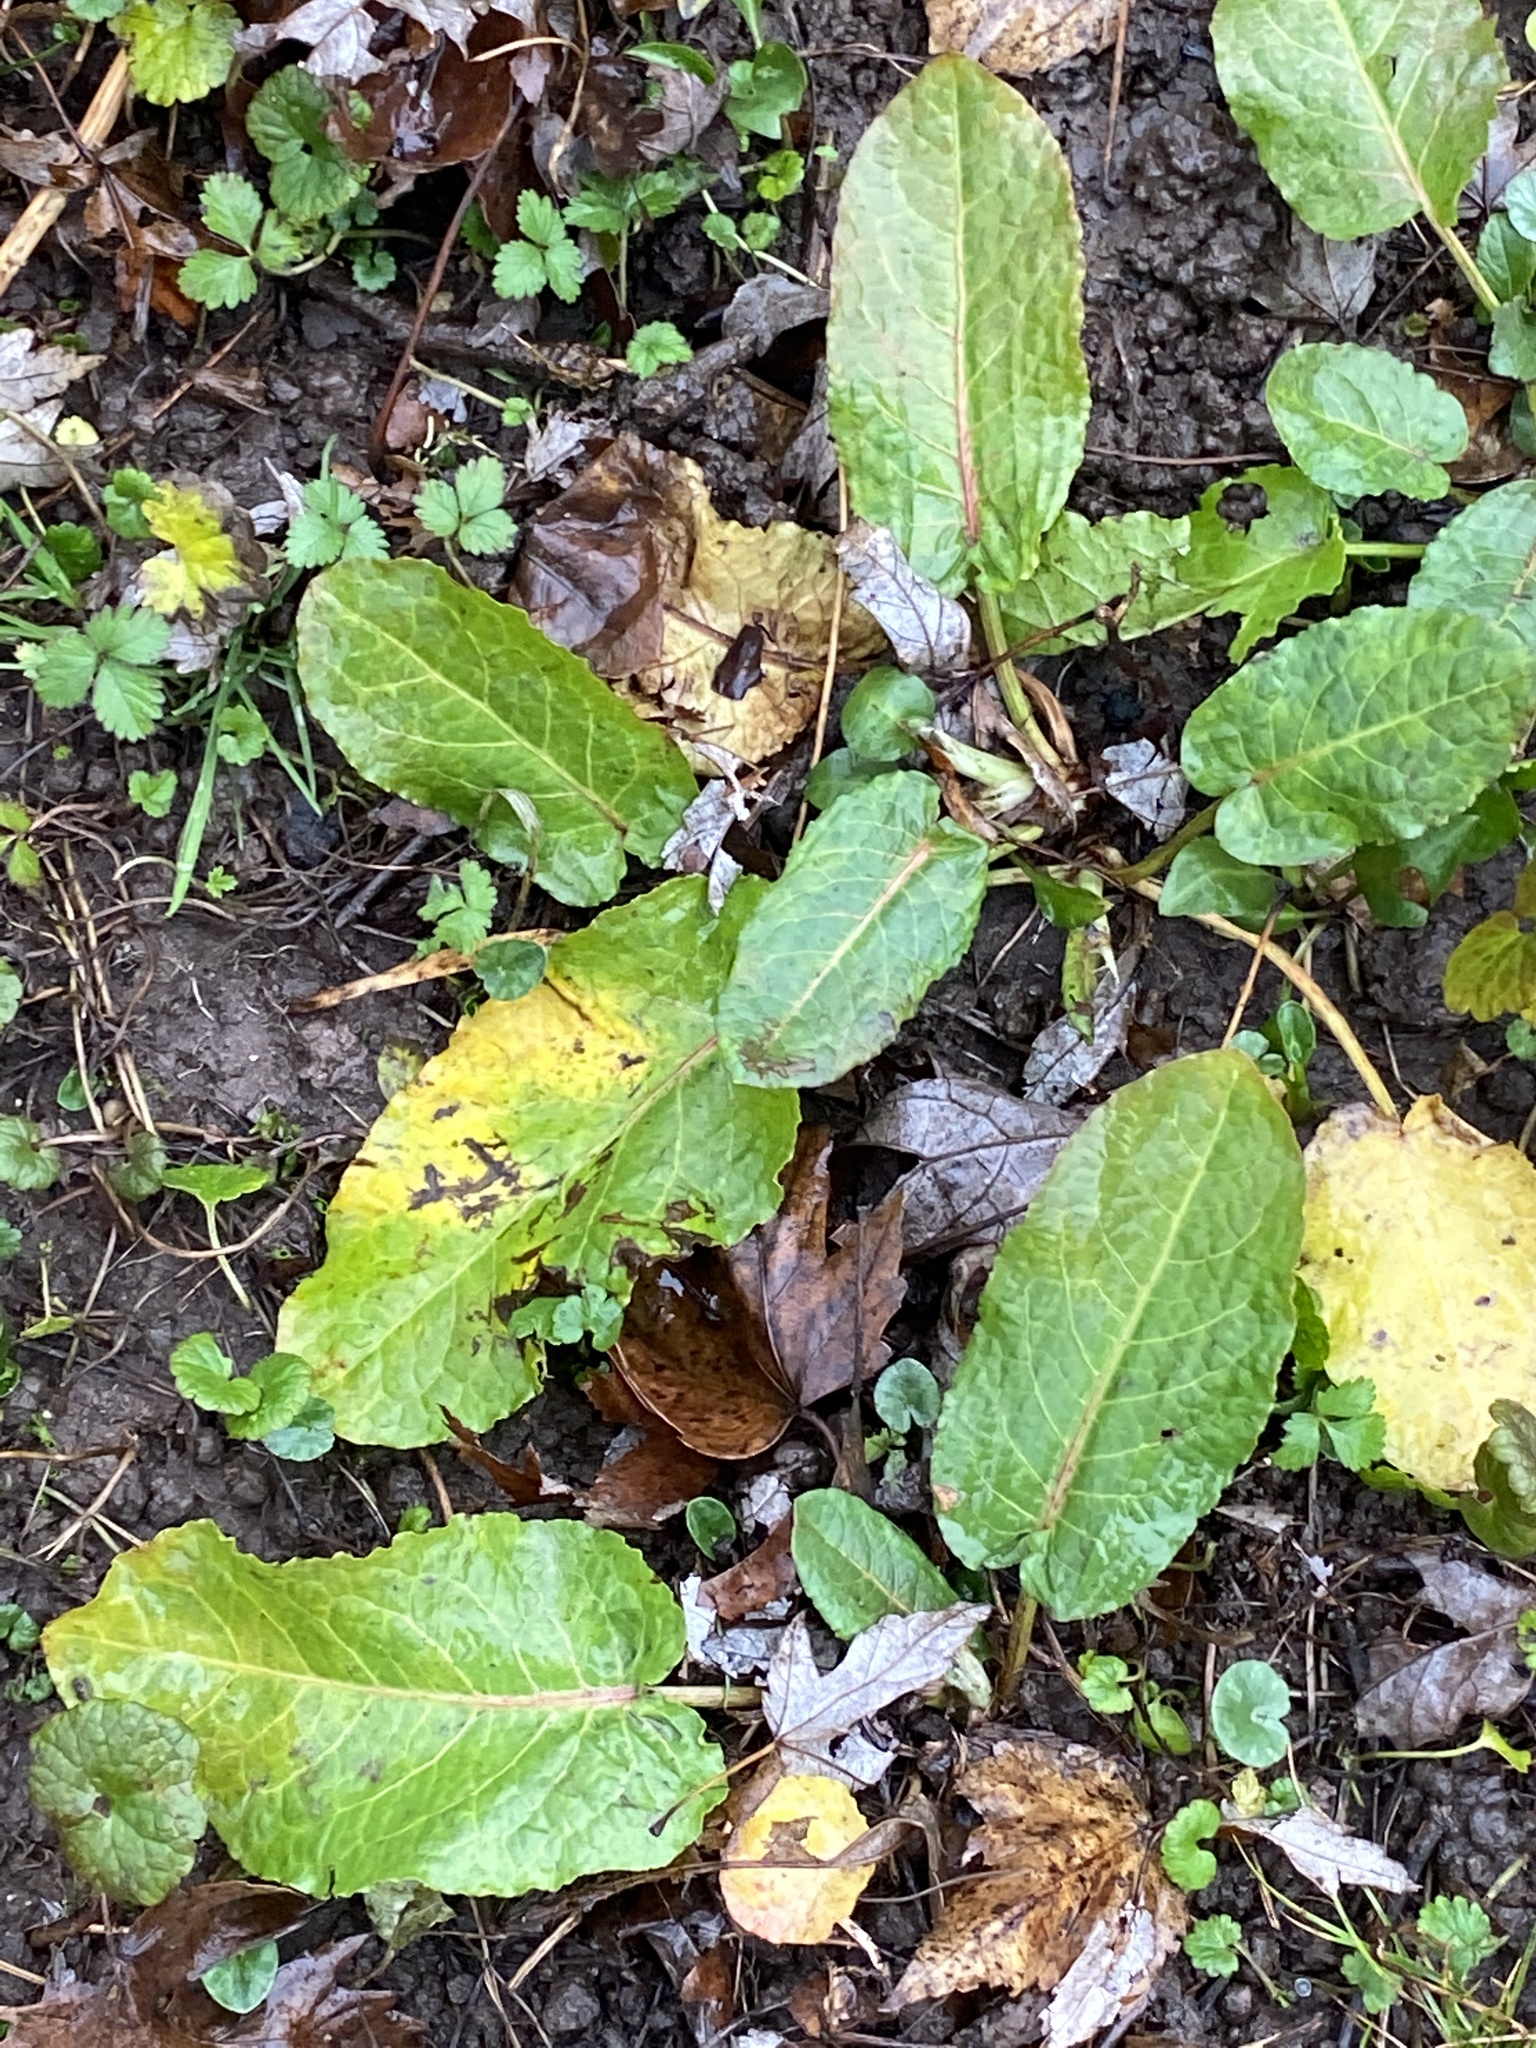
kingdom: Plantae
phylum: Tracheophyta
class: Magnoliopsida
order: Caryophyllales
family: Polygonaceae
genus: Rumex
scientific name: Rumex obtusifolius
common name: Bitter dock
